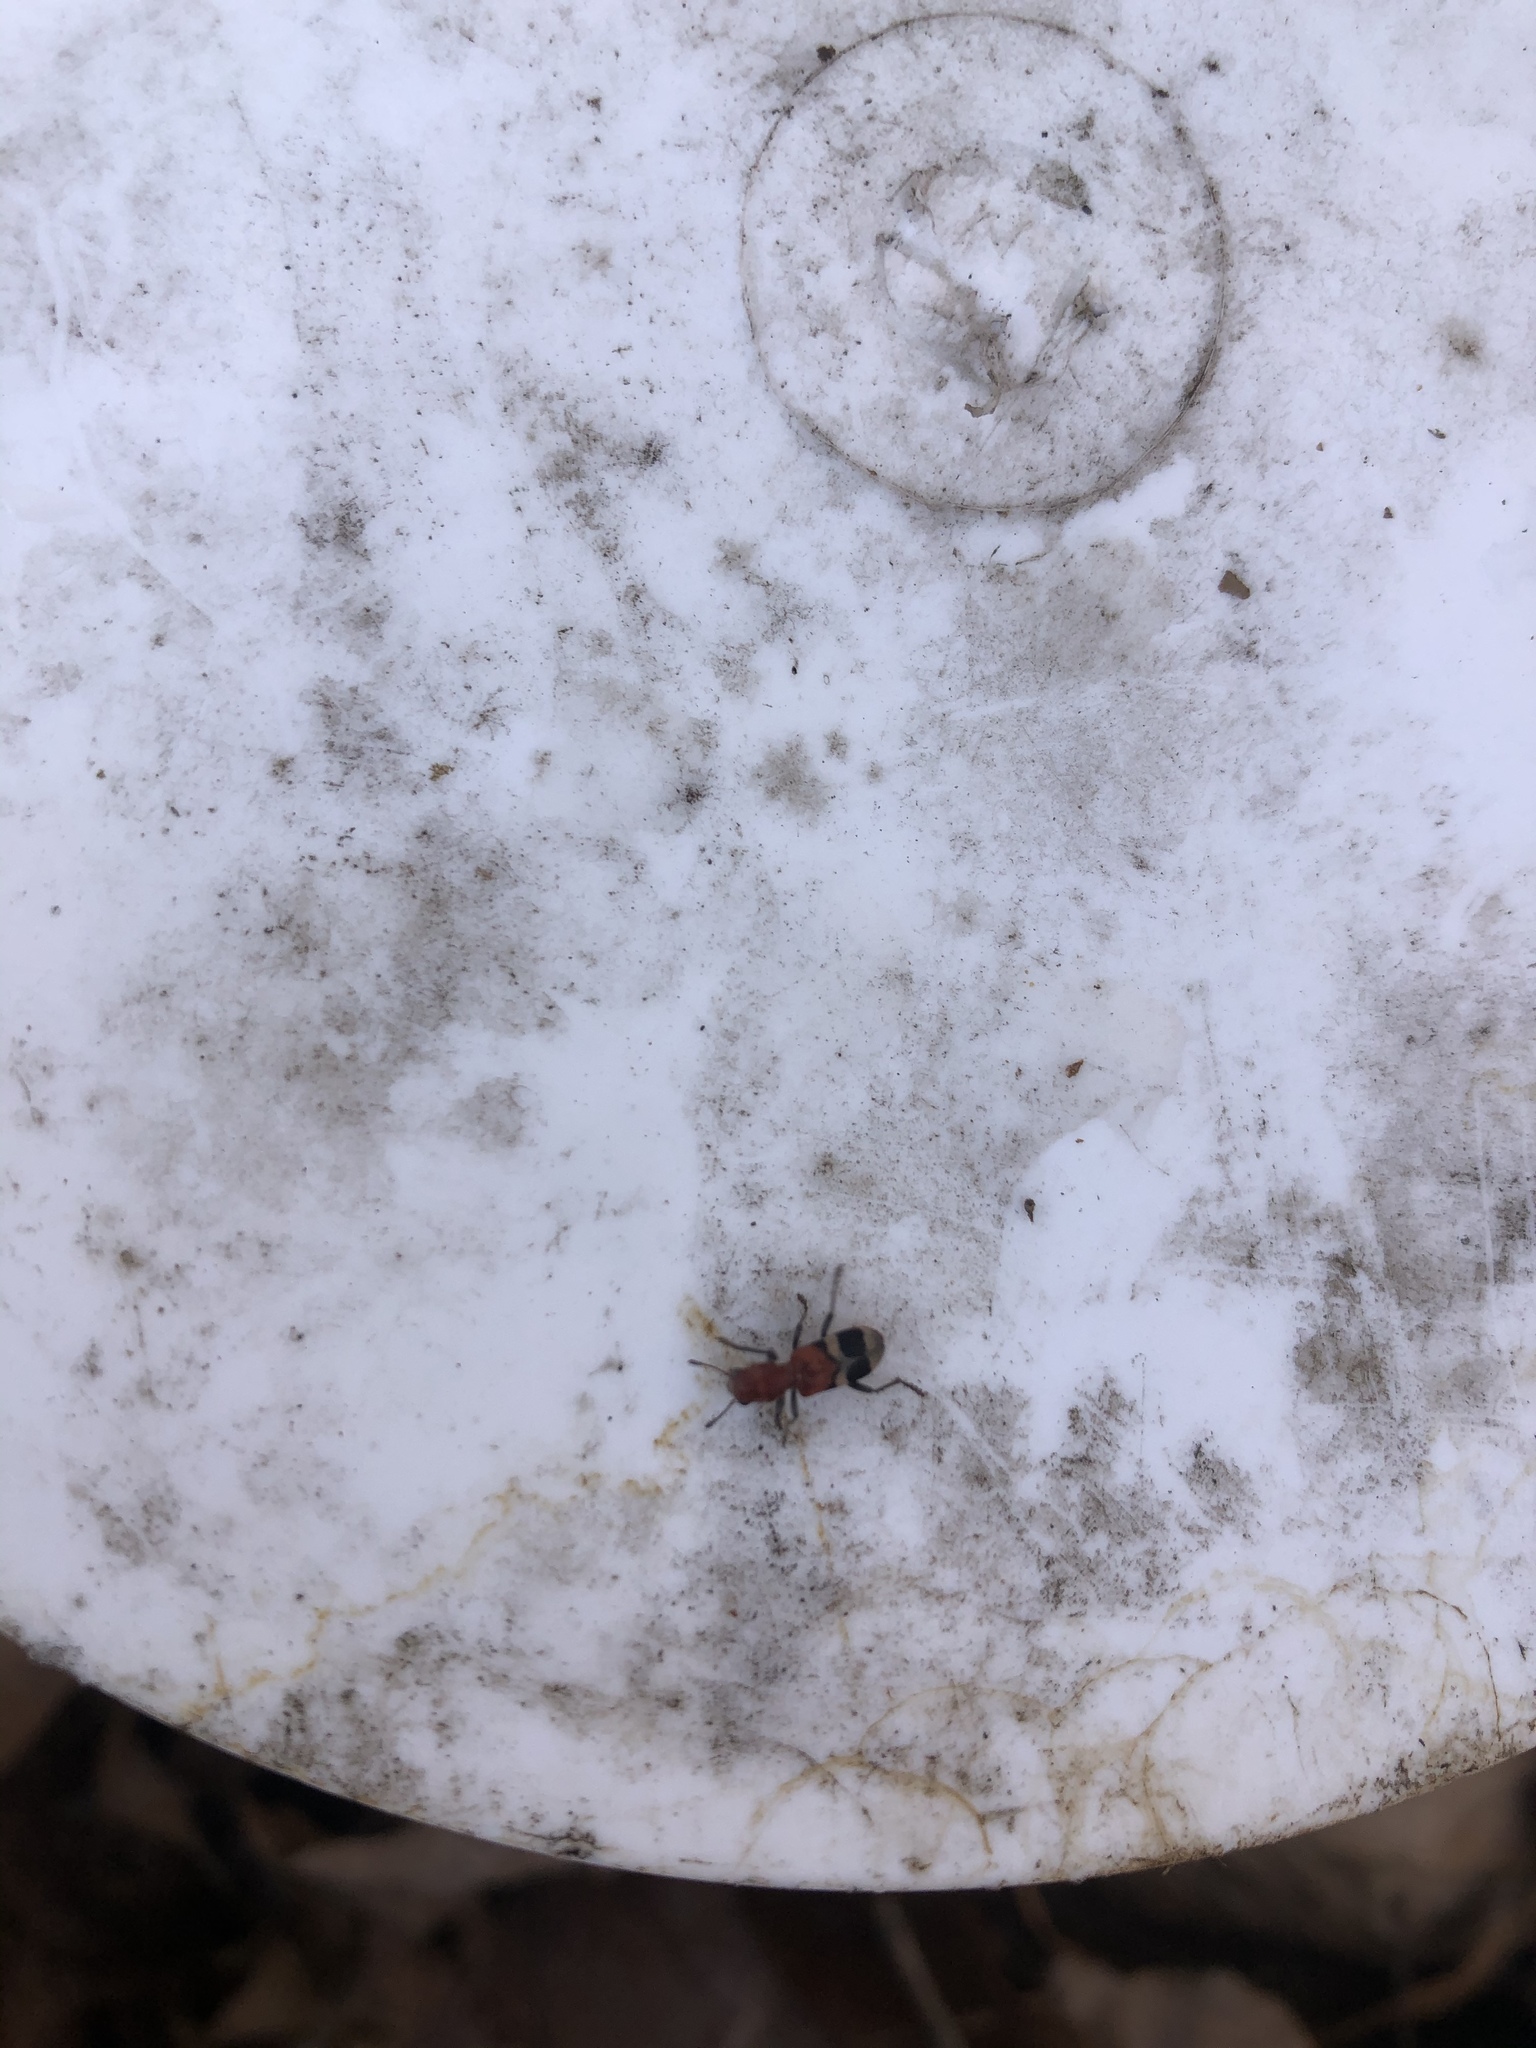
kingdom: Animalia
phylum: Arthropoda
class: Insecta
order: Coleoptera
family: Cleridae
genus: Enoclerus
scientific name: Enoclerus nigripes
